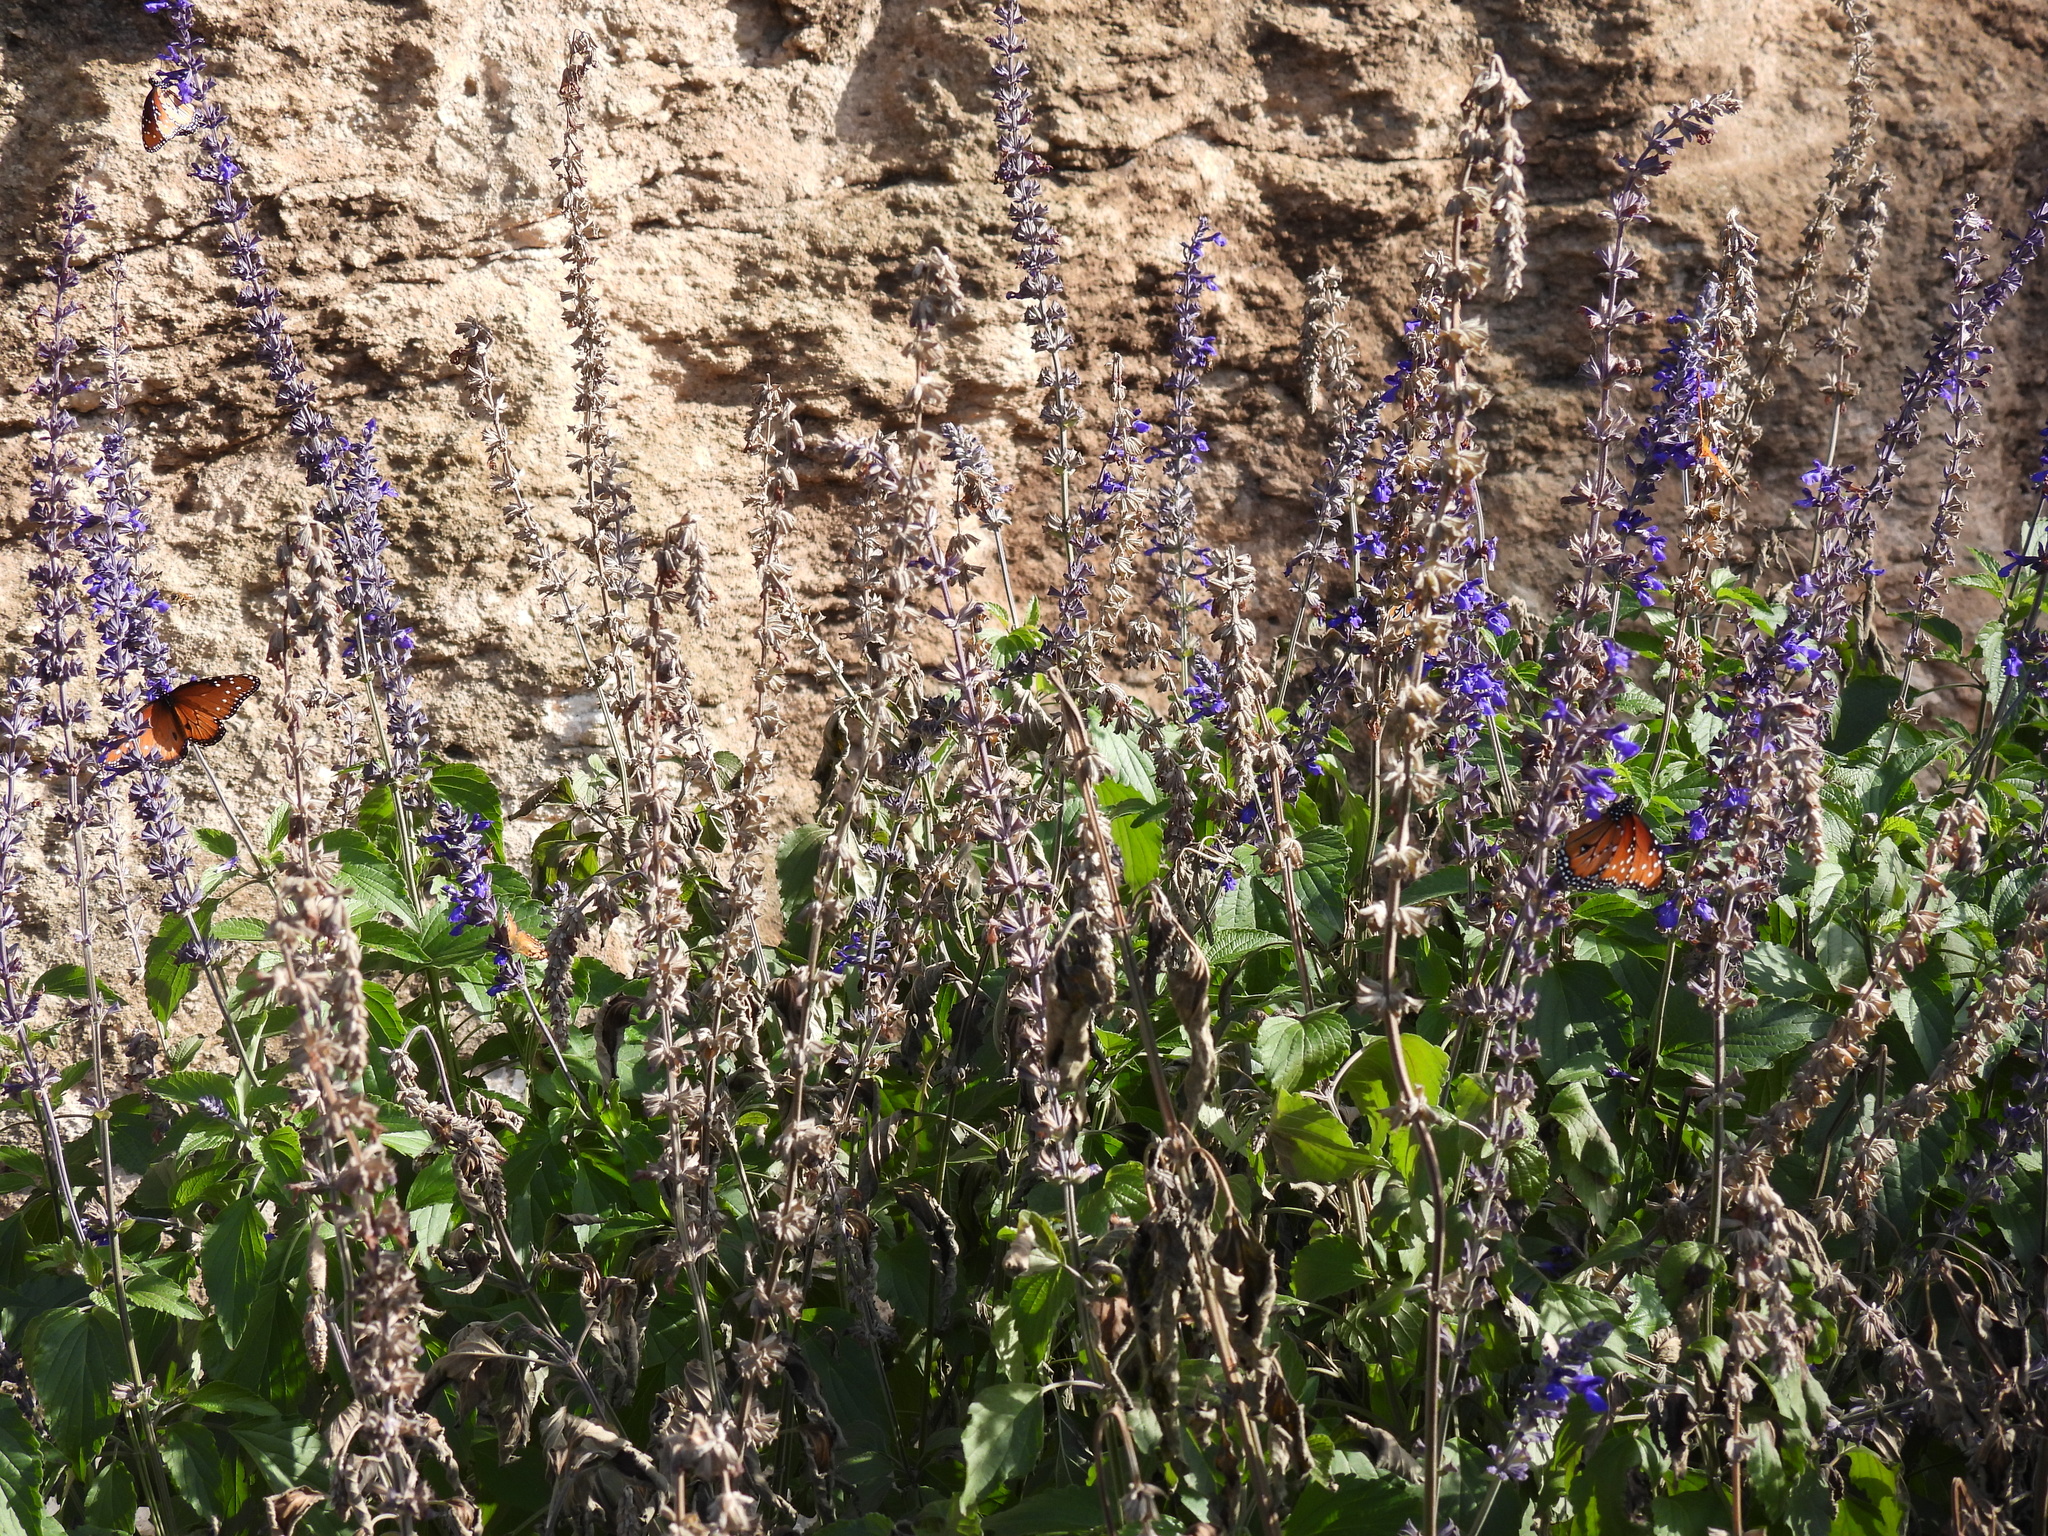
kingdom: Plantae
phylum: Tracheophyta
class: Magnoliopsida
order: Lamiales
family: Lamiaceae
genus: Salvia
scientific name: Salvia farinacea
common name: Mealy sage
